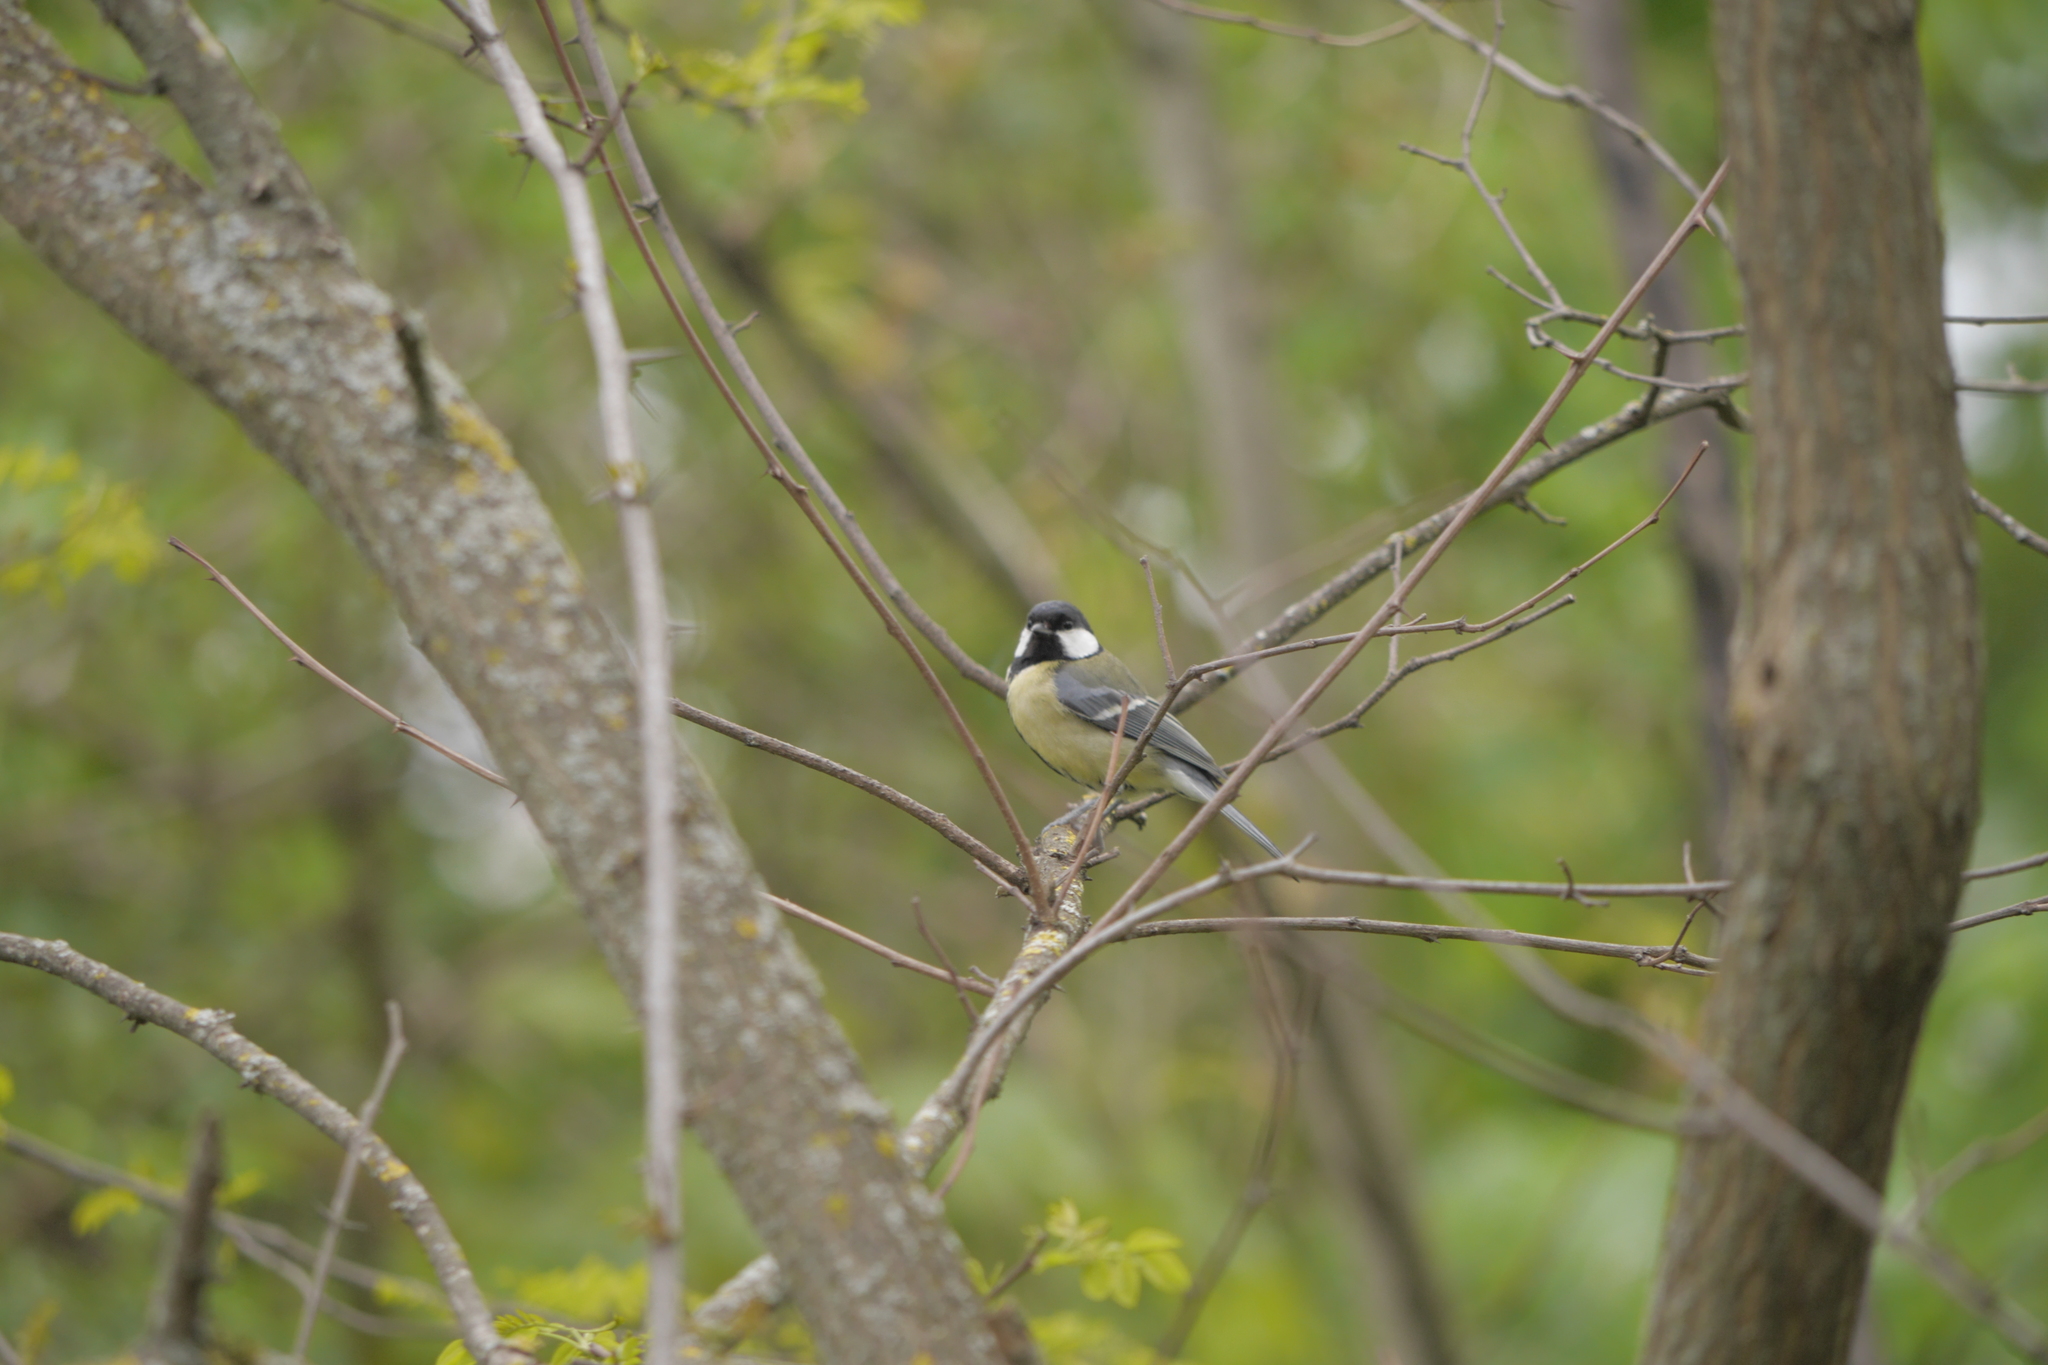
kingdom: Animalia
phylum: Chordata
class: Aves
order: Passeriformes
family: Paridae
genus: Parus
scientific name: Parus major
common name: Great tit
